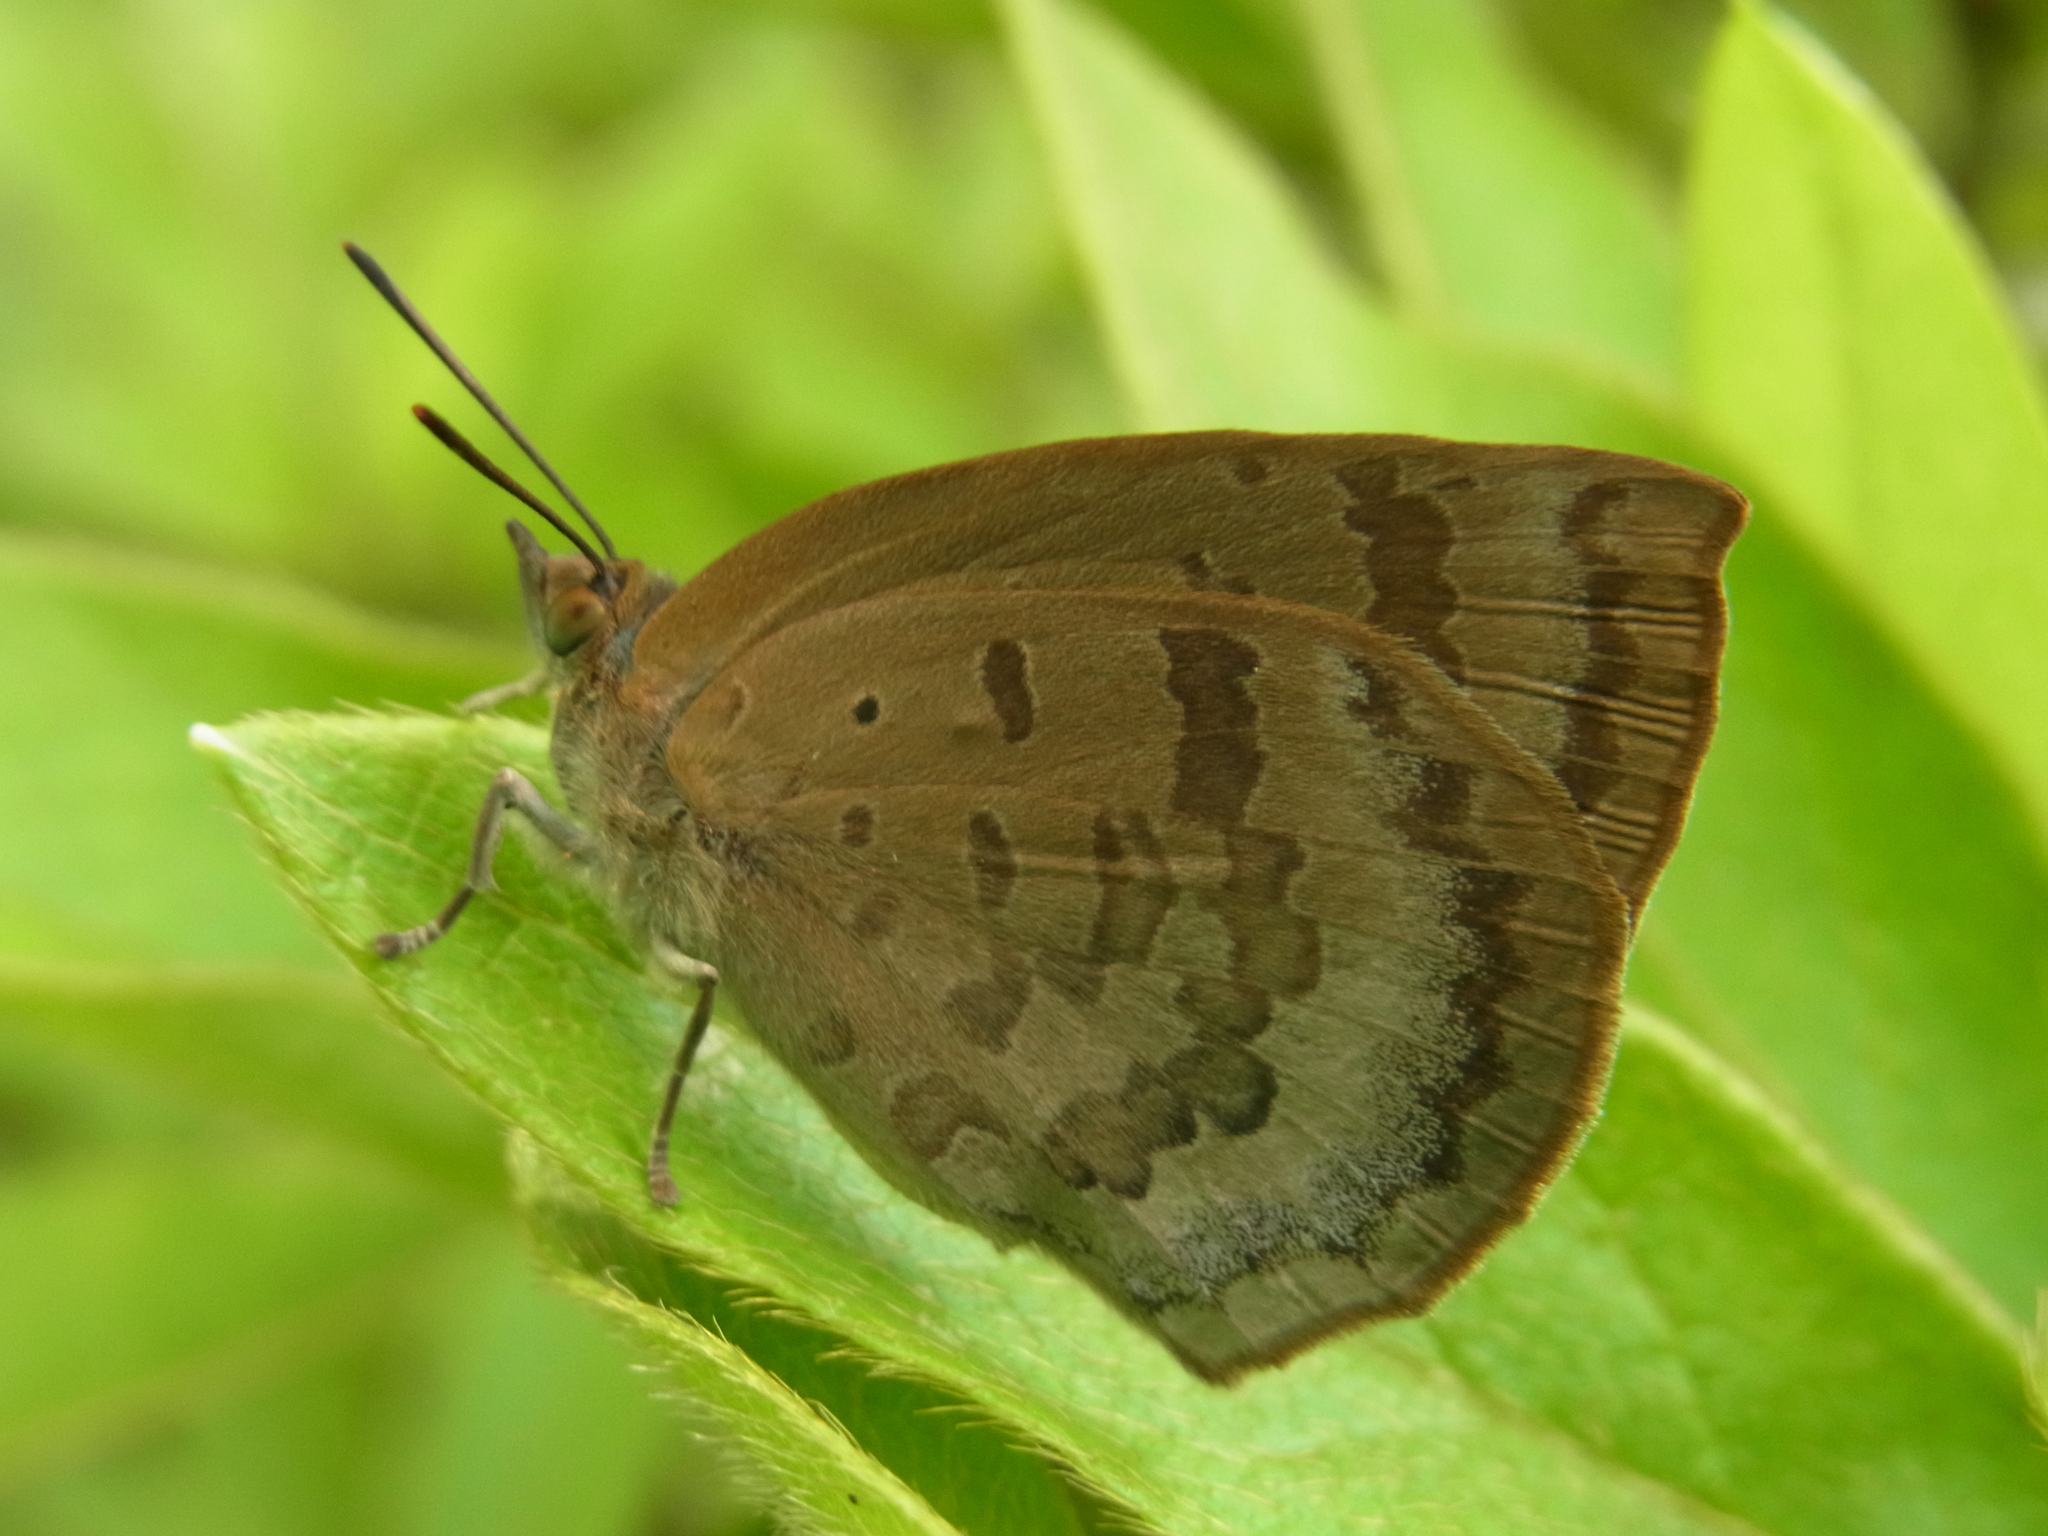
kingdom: Animalia
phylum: Arthropoda
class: Insecta
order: Lepidoptera
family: Lycaenidae
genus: Arhopala
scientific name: Arhopala japonica
